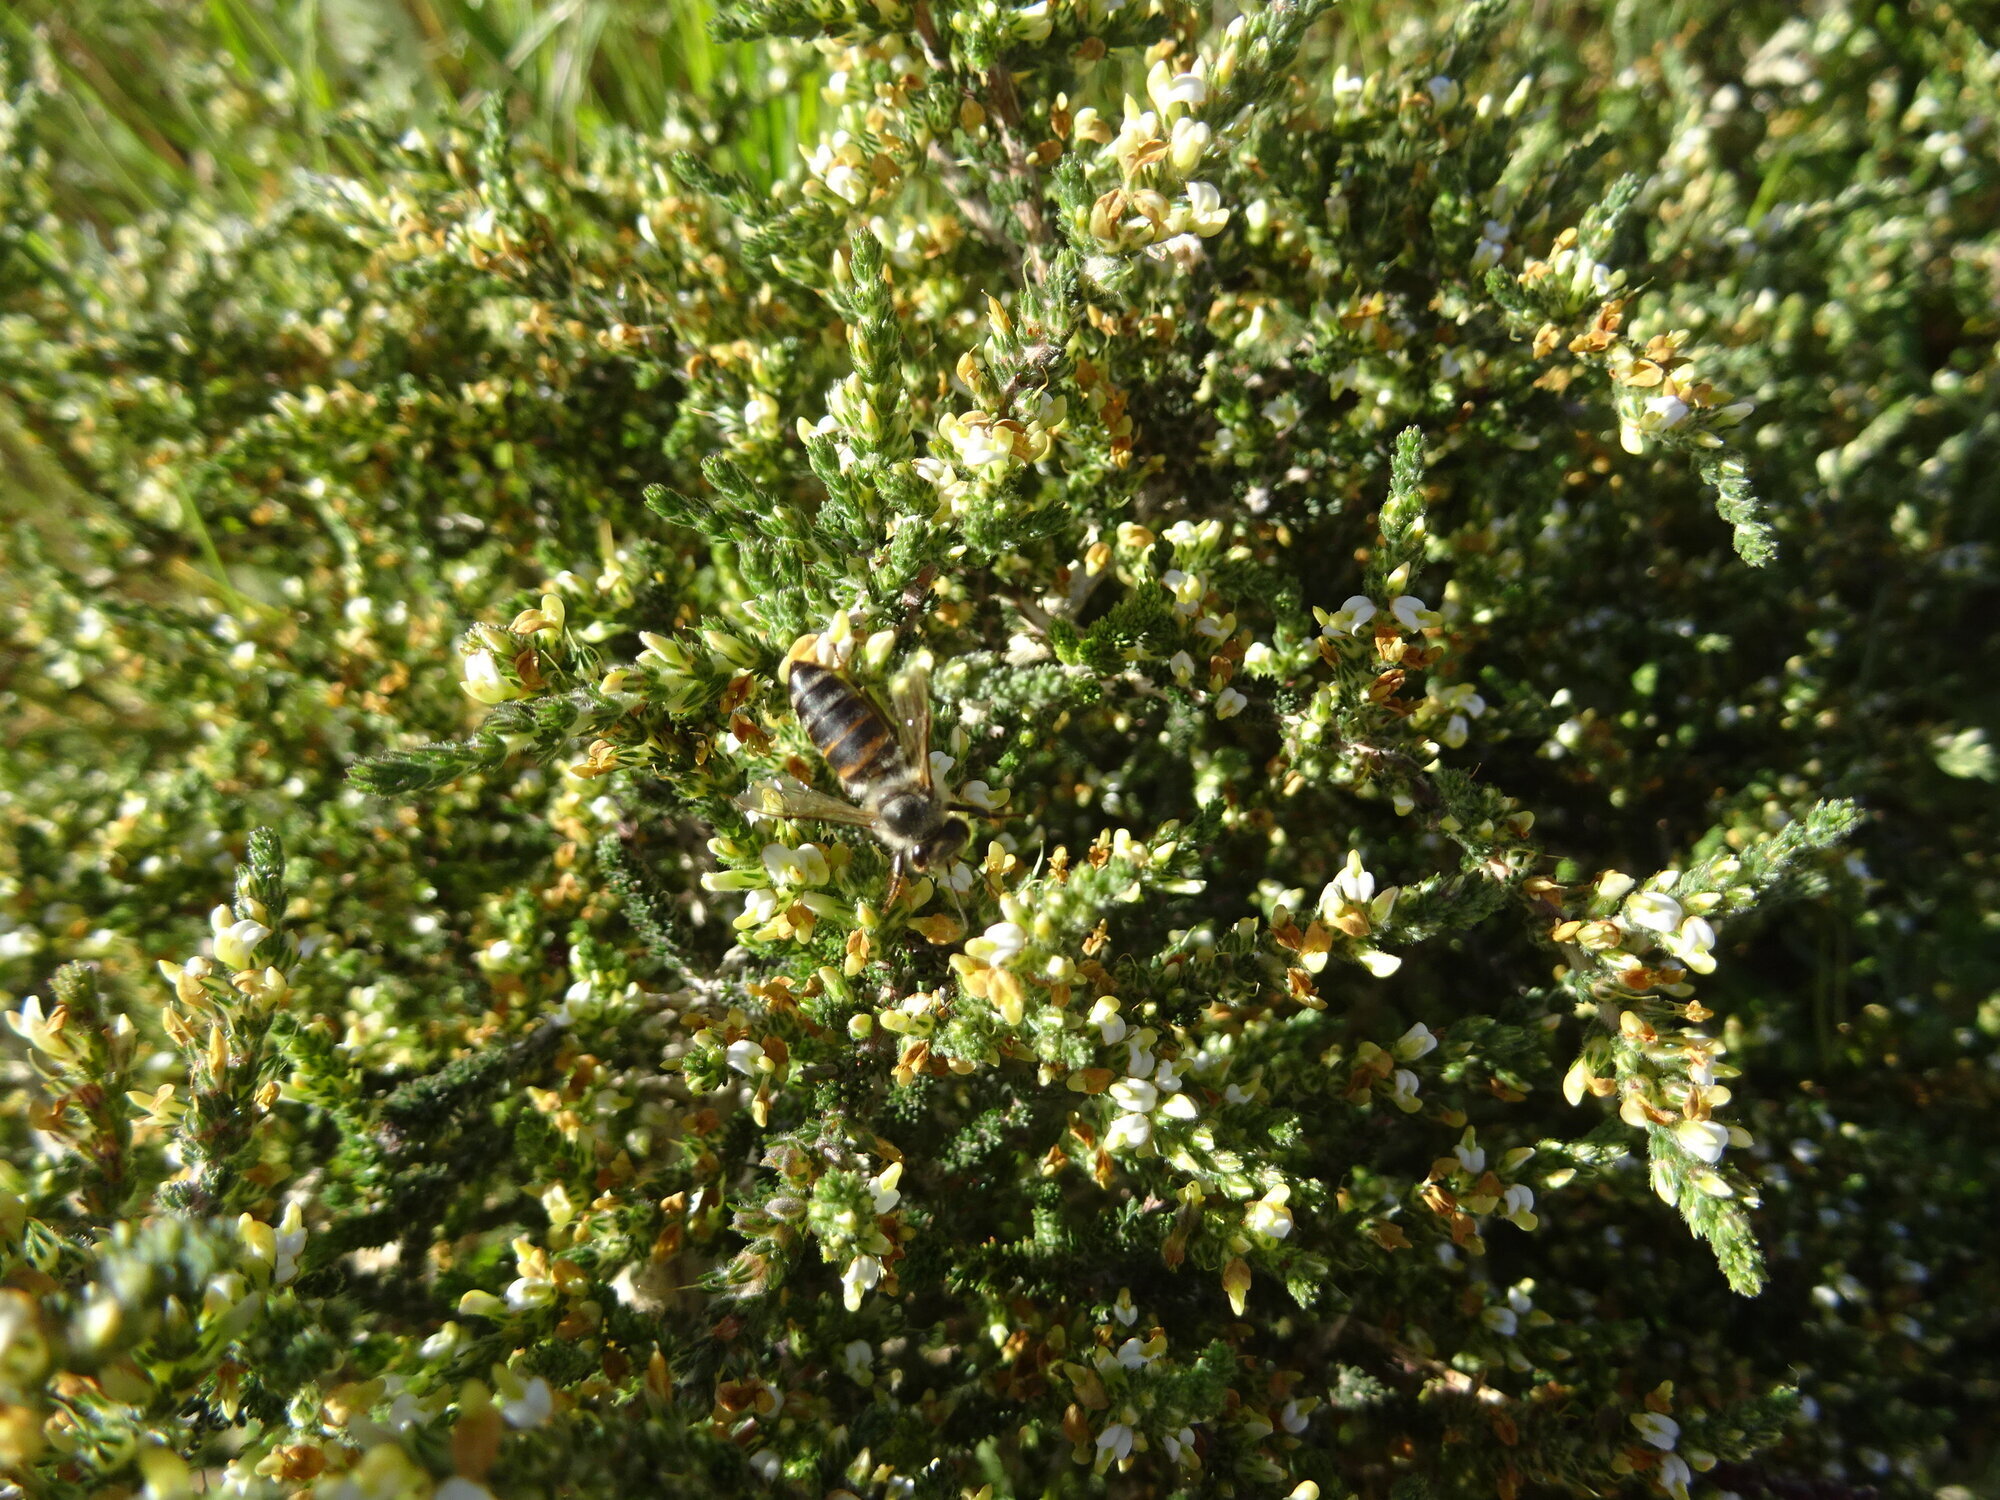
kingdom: Animalia
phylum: Arthropoda
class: Insecta
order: Hymenoptera
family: Apidae
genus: Apis
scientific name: Apis mellifera
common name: Honey bee
